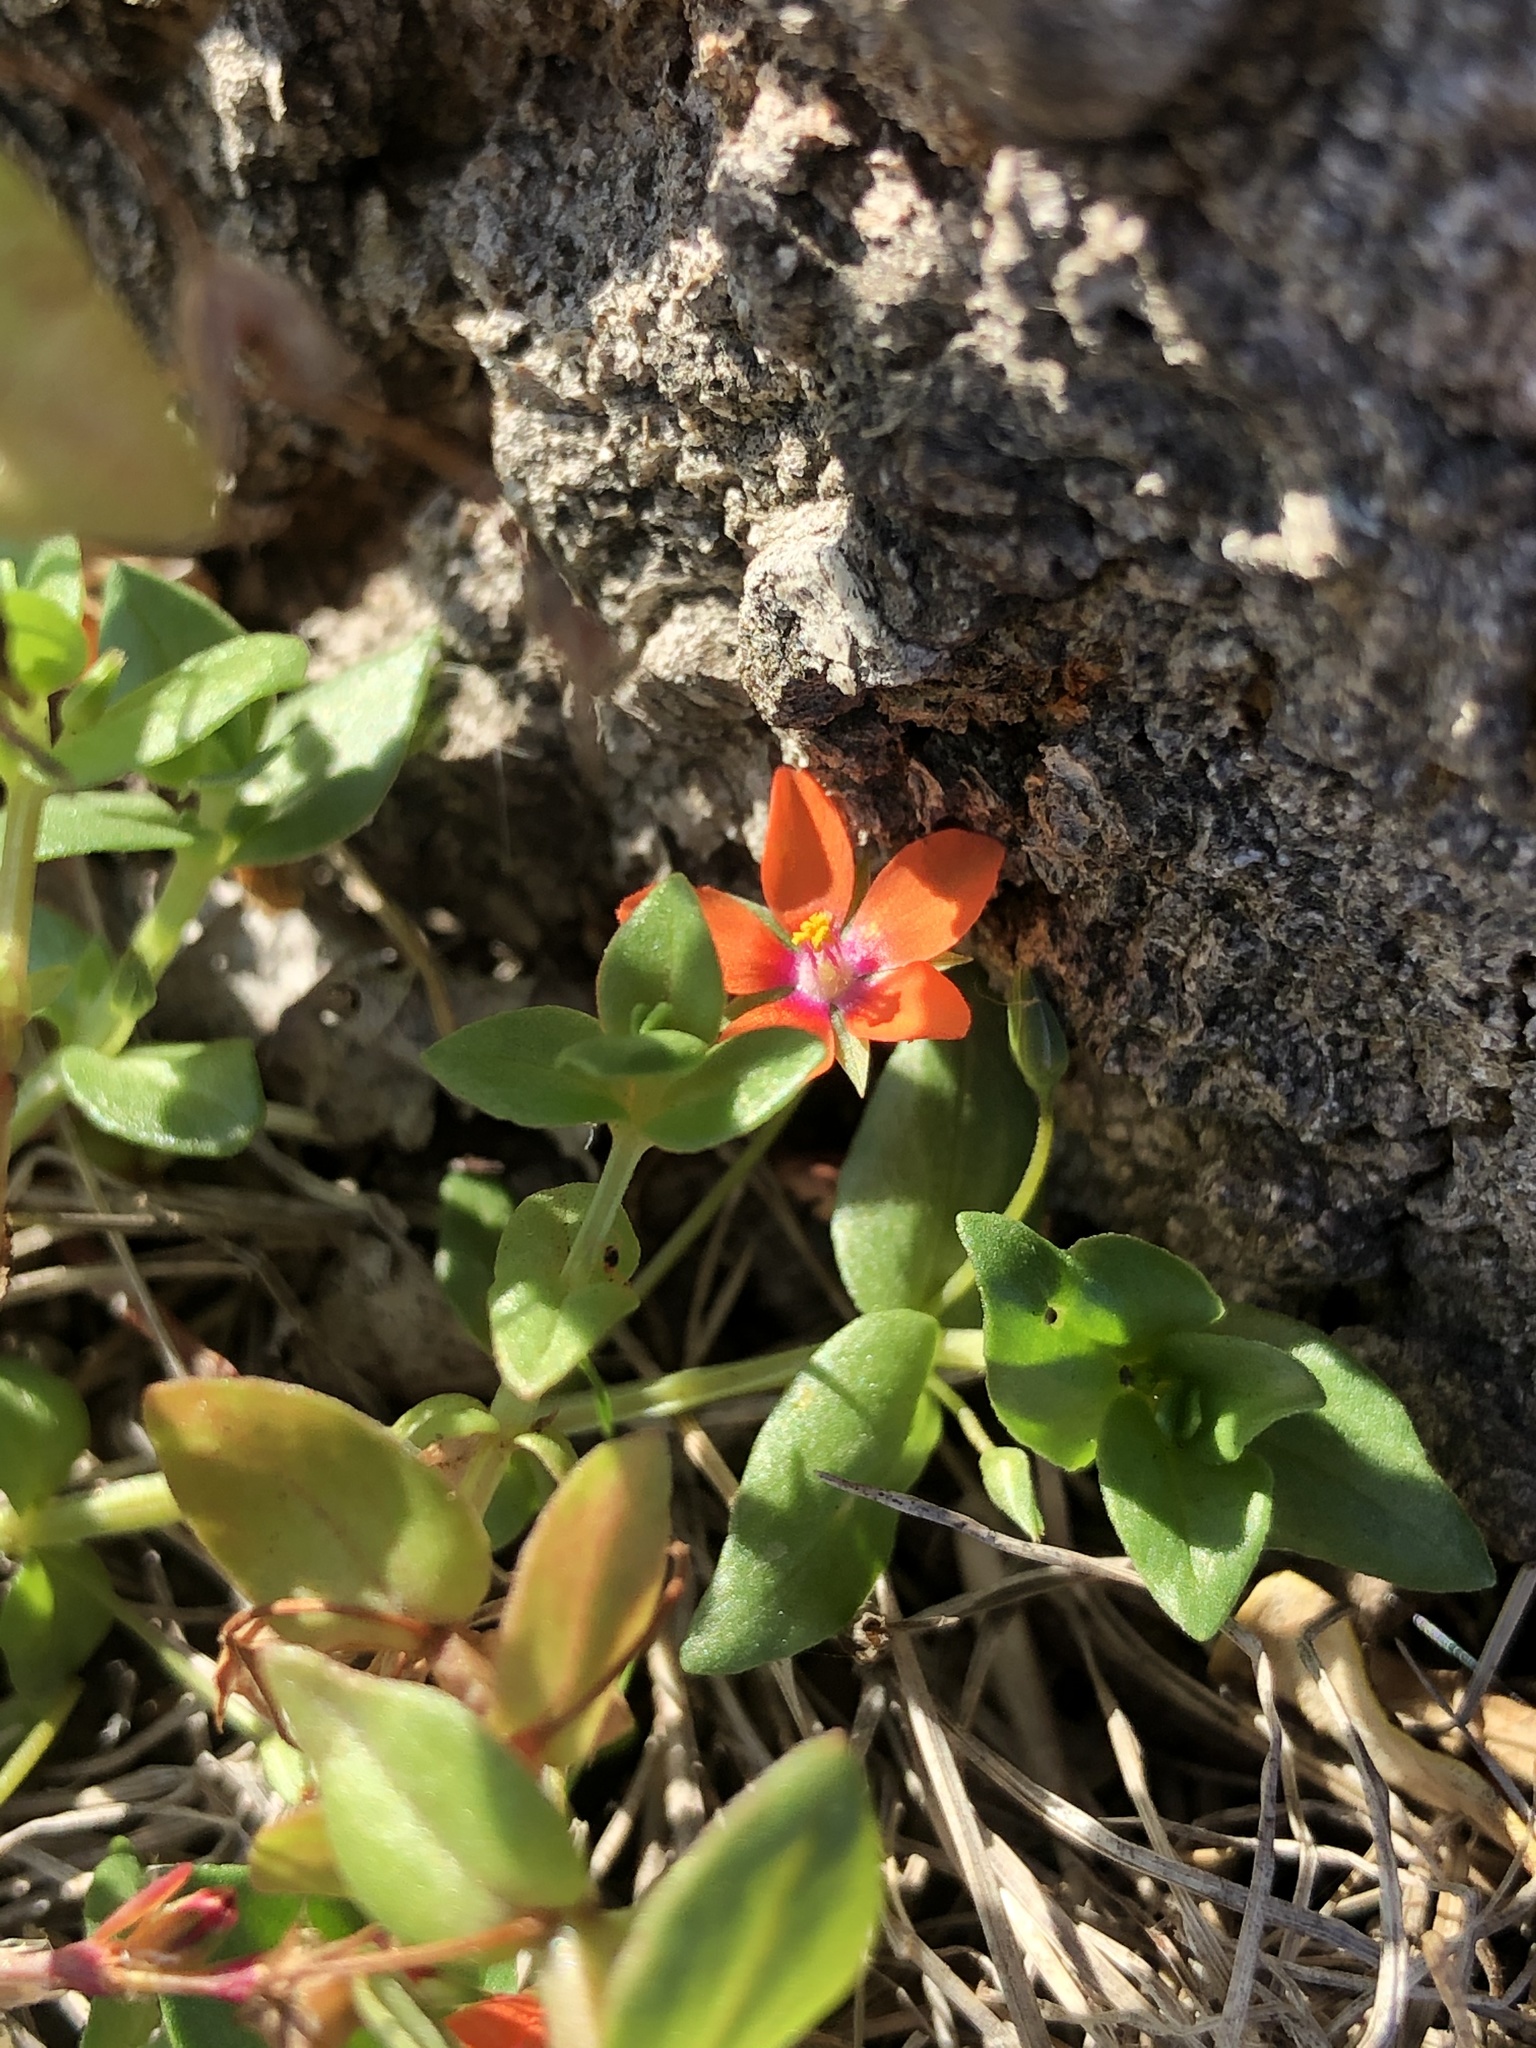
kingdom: Plantae
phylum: Tracheophyta
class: Magnoliopsida
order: Ericales
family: Primulaceae
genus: Lysimachia
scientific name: Lysimachia arvensis
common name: Scarlet pimpernel
